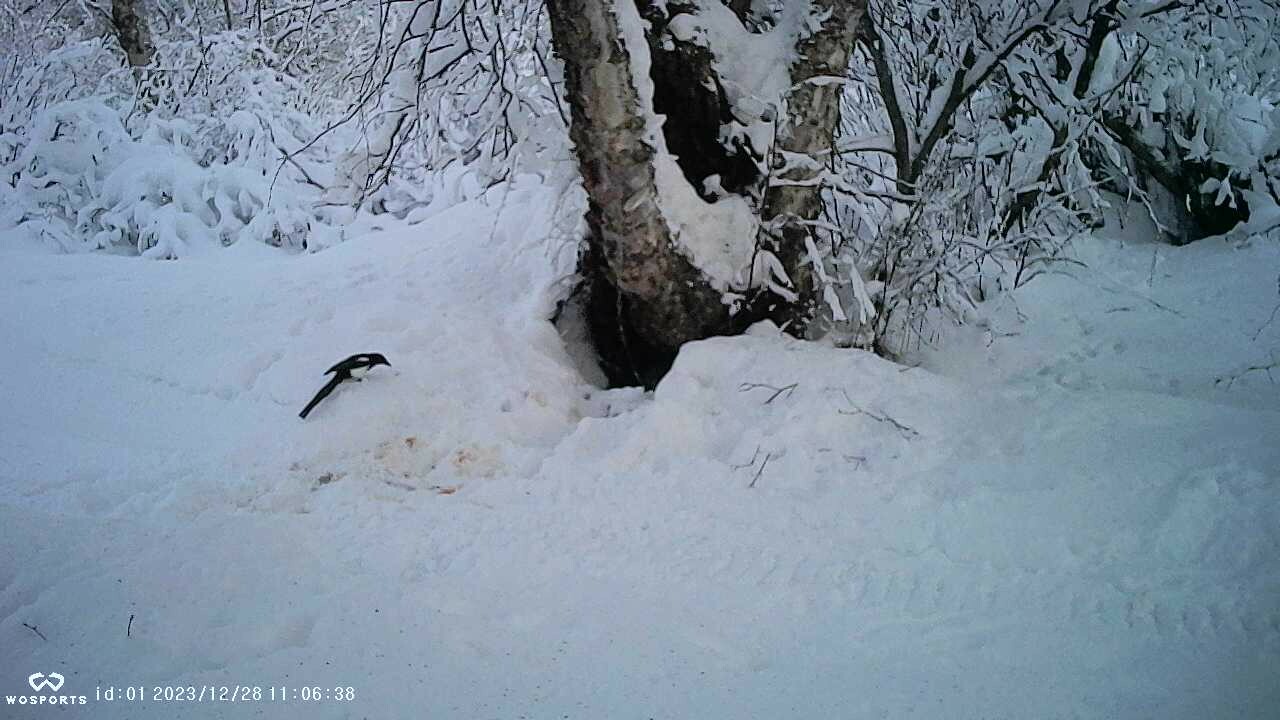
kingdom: Animalia
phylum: Chordata
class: Aves
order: Passeriformes
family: Corvidae
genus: Pica
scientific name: Pica hudsonia
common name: Black-billed magpie
